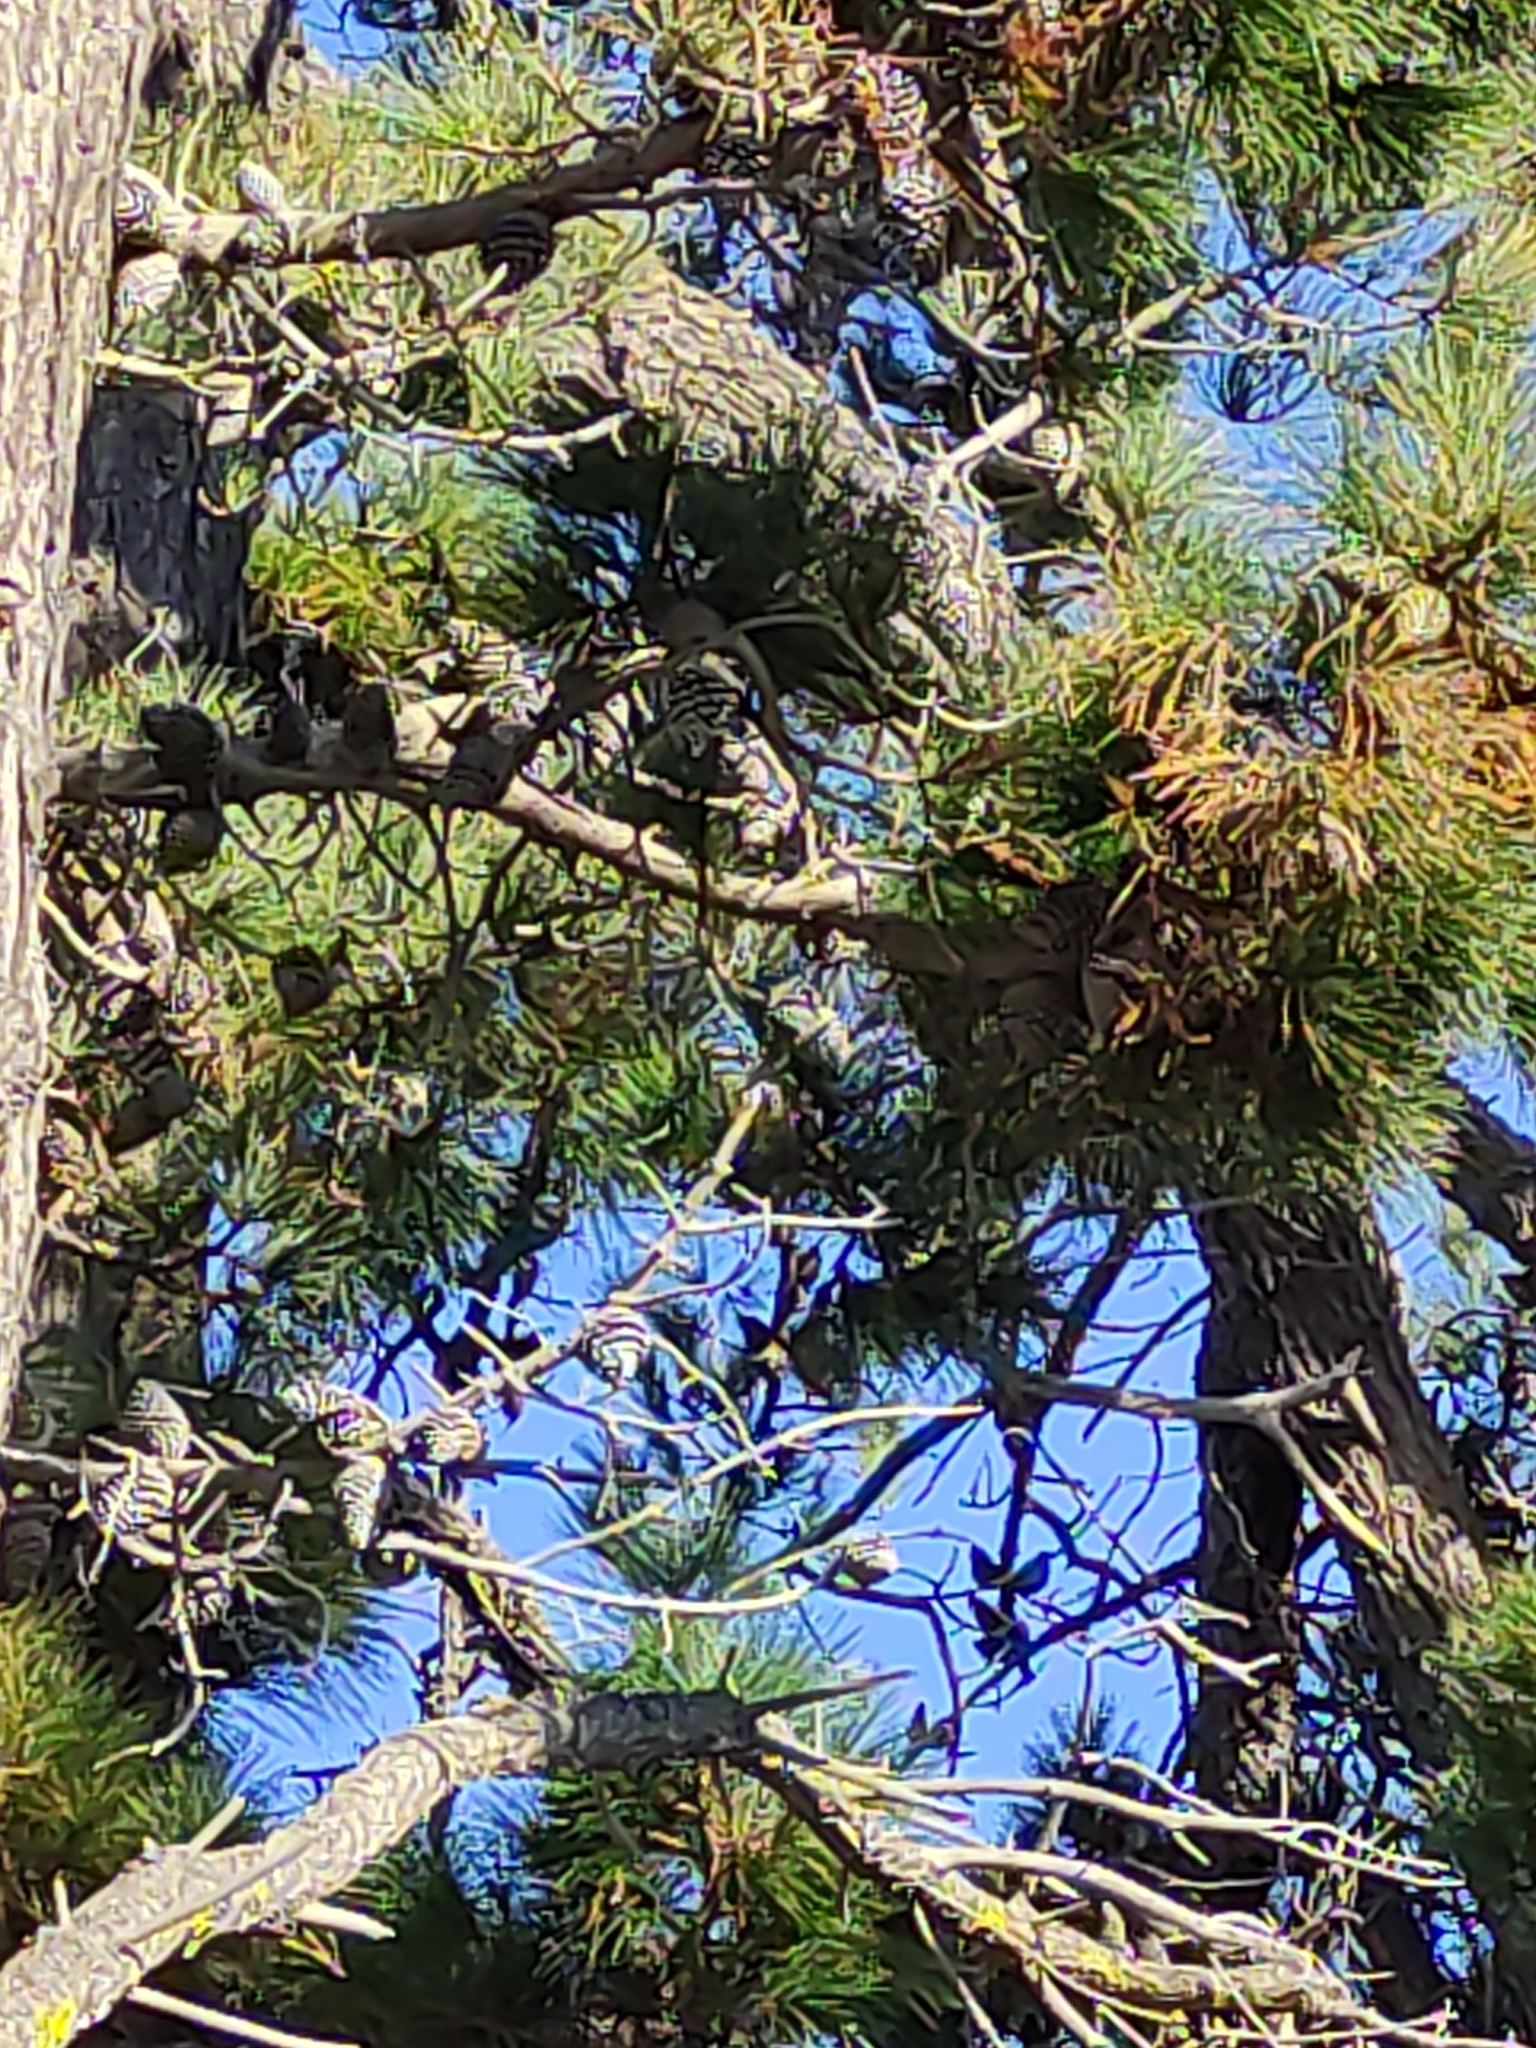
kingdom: Plantae
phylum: Tracheophyta
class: Pinopsida
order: Pinales
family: Pinaceae
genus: Pinus
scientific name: Pinus radiata
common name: Monterey pine
